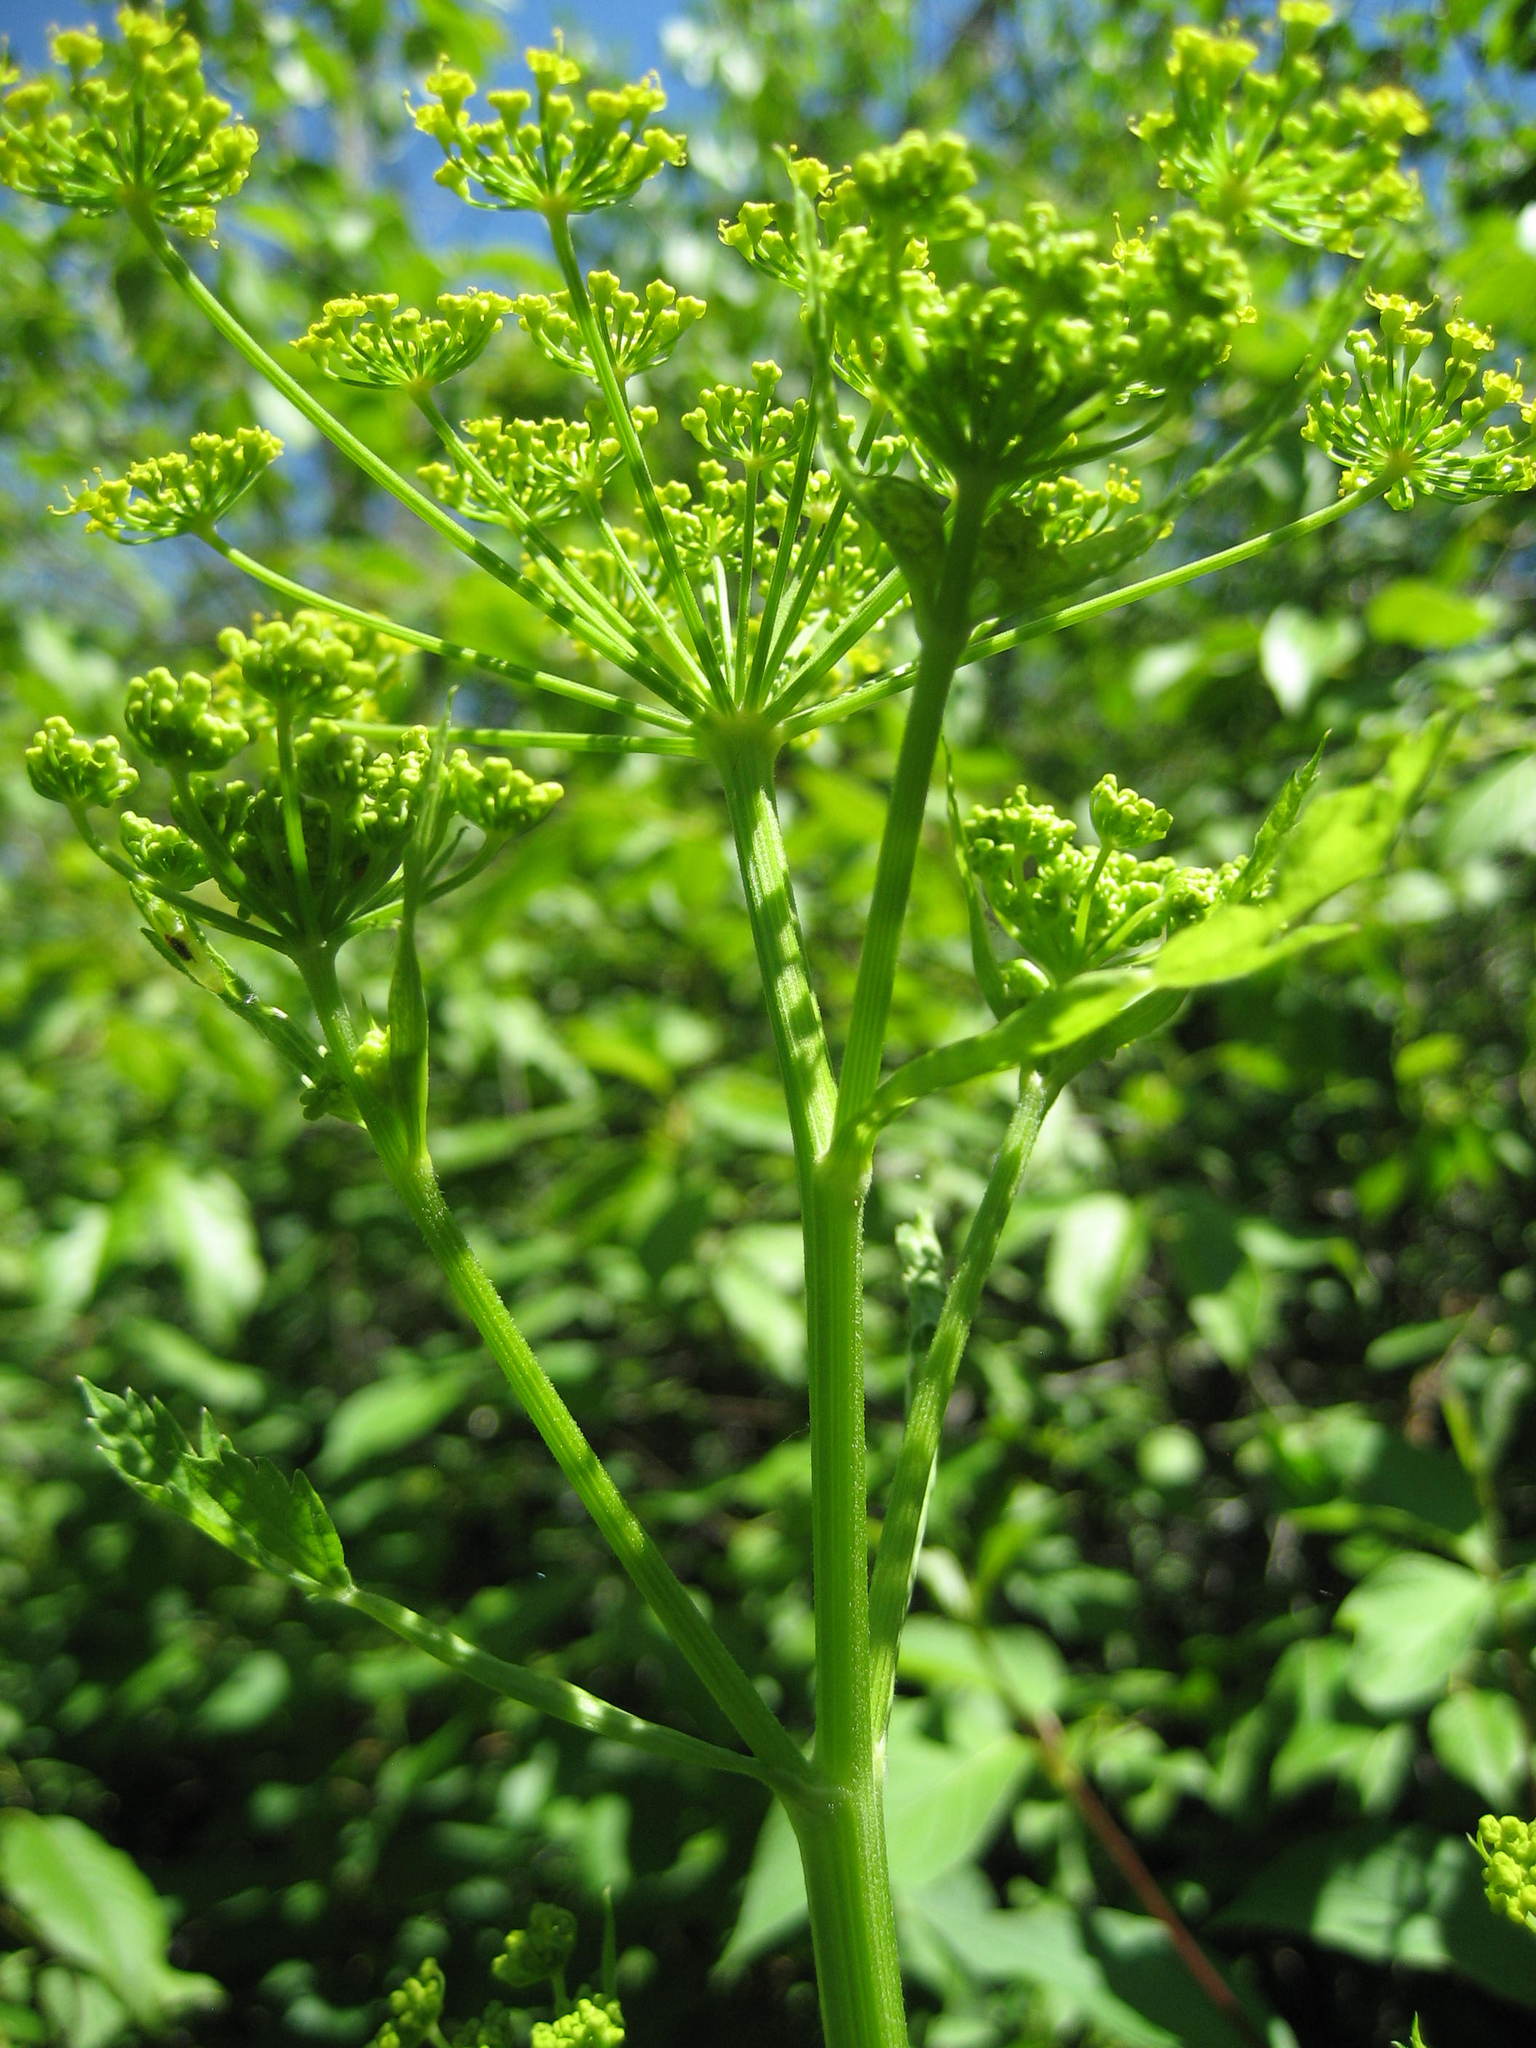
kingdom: Plantae
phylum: Tracheophyta
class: Magnoliopsida
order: Apiales
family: Apiaceae
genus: Pastinaca
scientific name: Pastinaca sativa
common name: Wild parsnip
